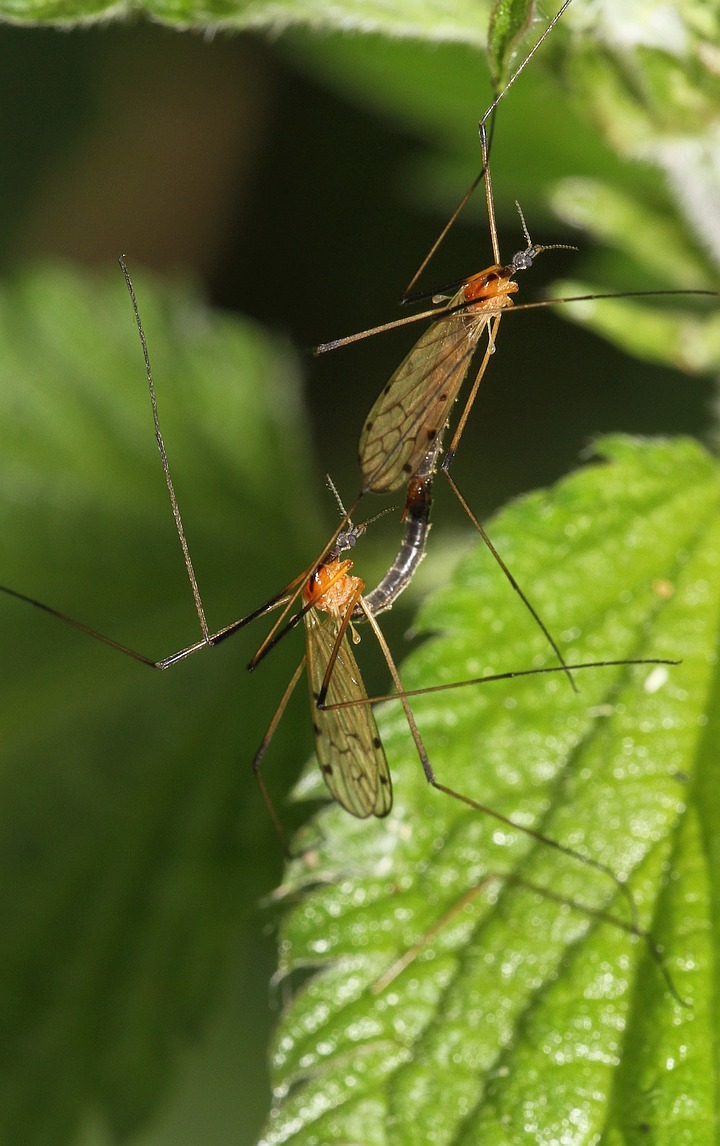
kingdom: Animalia
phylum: Arthropoda
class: Insecta
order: Diptera
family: Limoniidae
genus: Limonia
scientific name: Limonia nigropunctata
